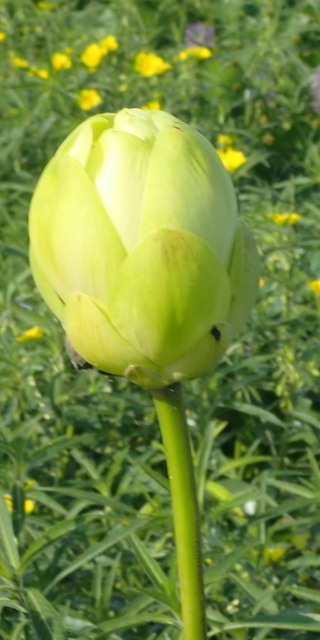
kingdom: Plantae
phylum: Tracheophyta
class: Magnoliopsida
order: Proteales
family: Nelumbonaceae
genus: Nelumbo
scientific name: Nelumbo lutea
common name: American lotus
